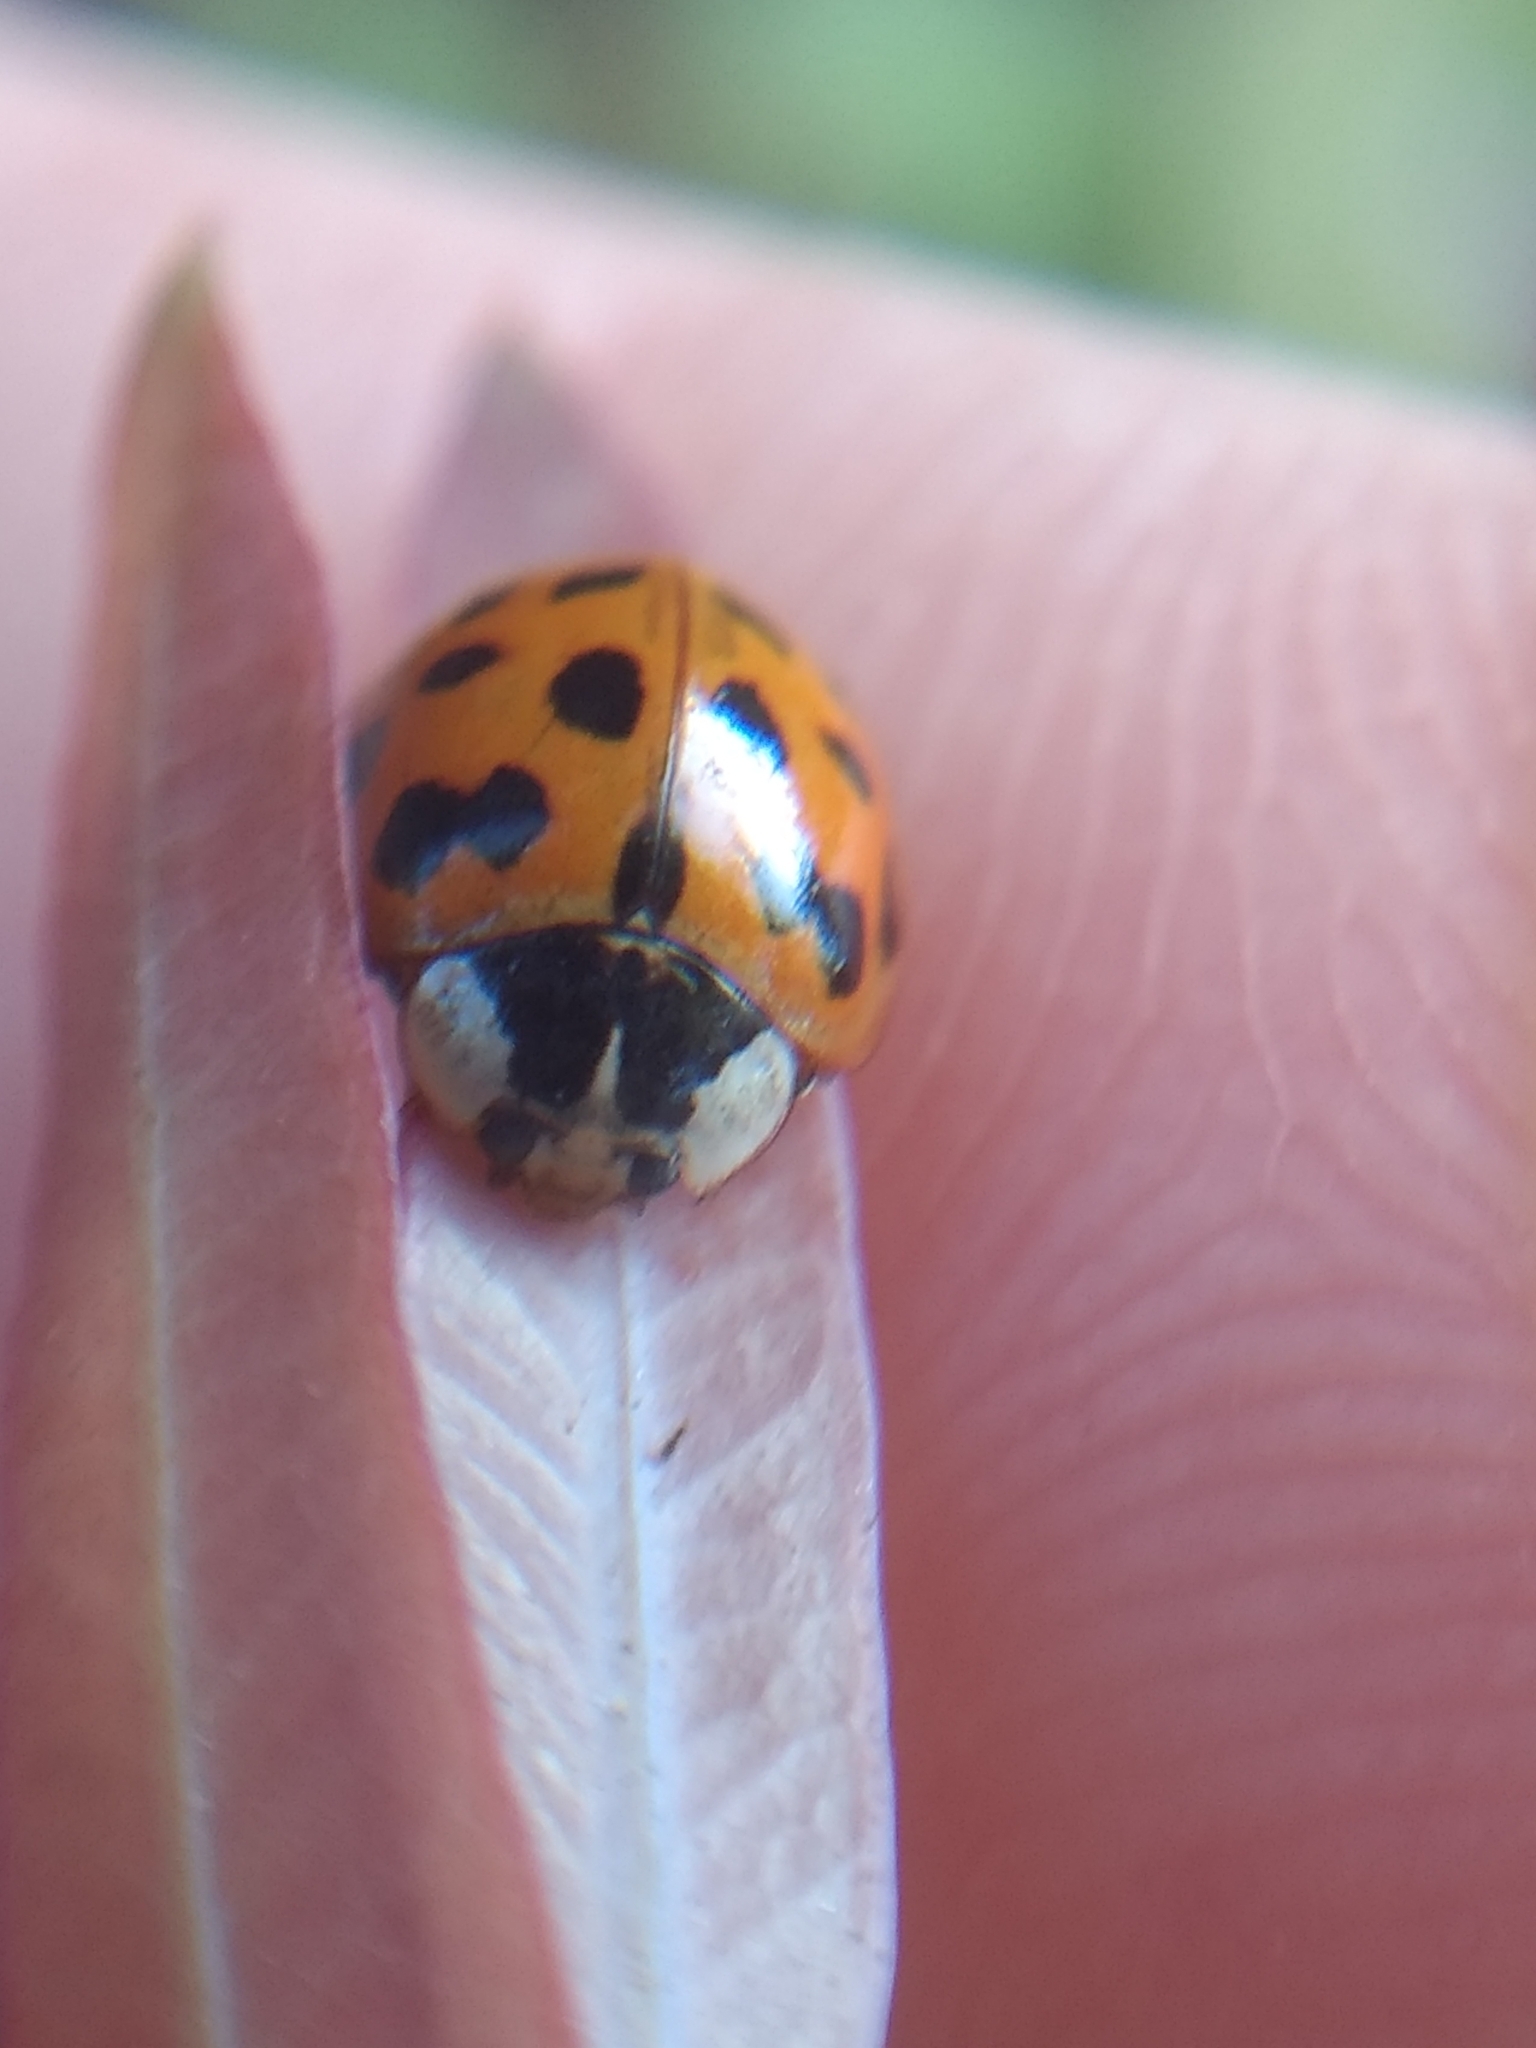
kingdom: Animalia
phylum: Arthropoda
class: Insecta
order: Coleoptera
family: Coccinellidae
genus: Harmonia
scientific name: Harmonia axyridis
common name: Harlequin ladybird
